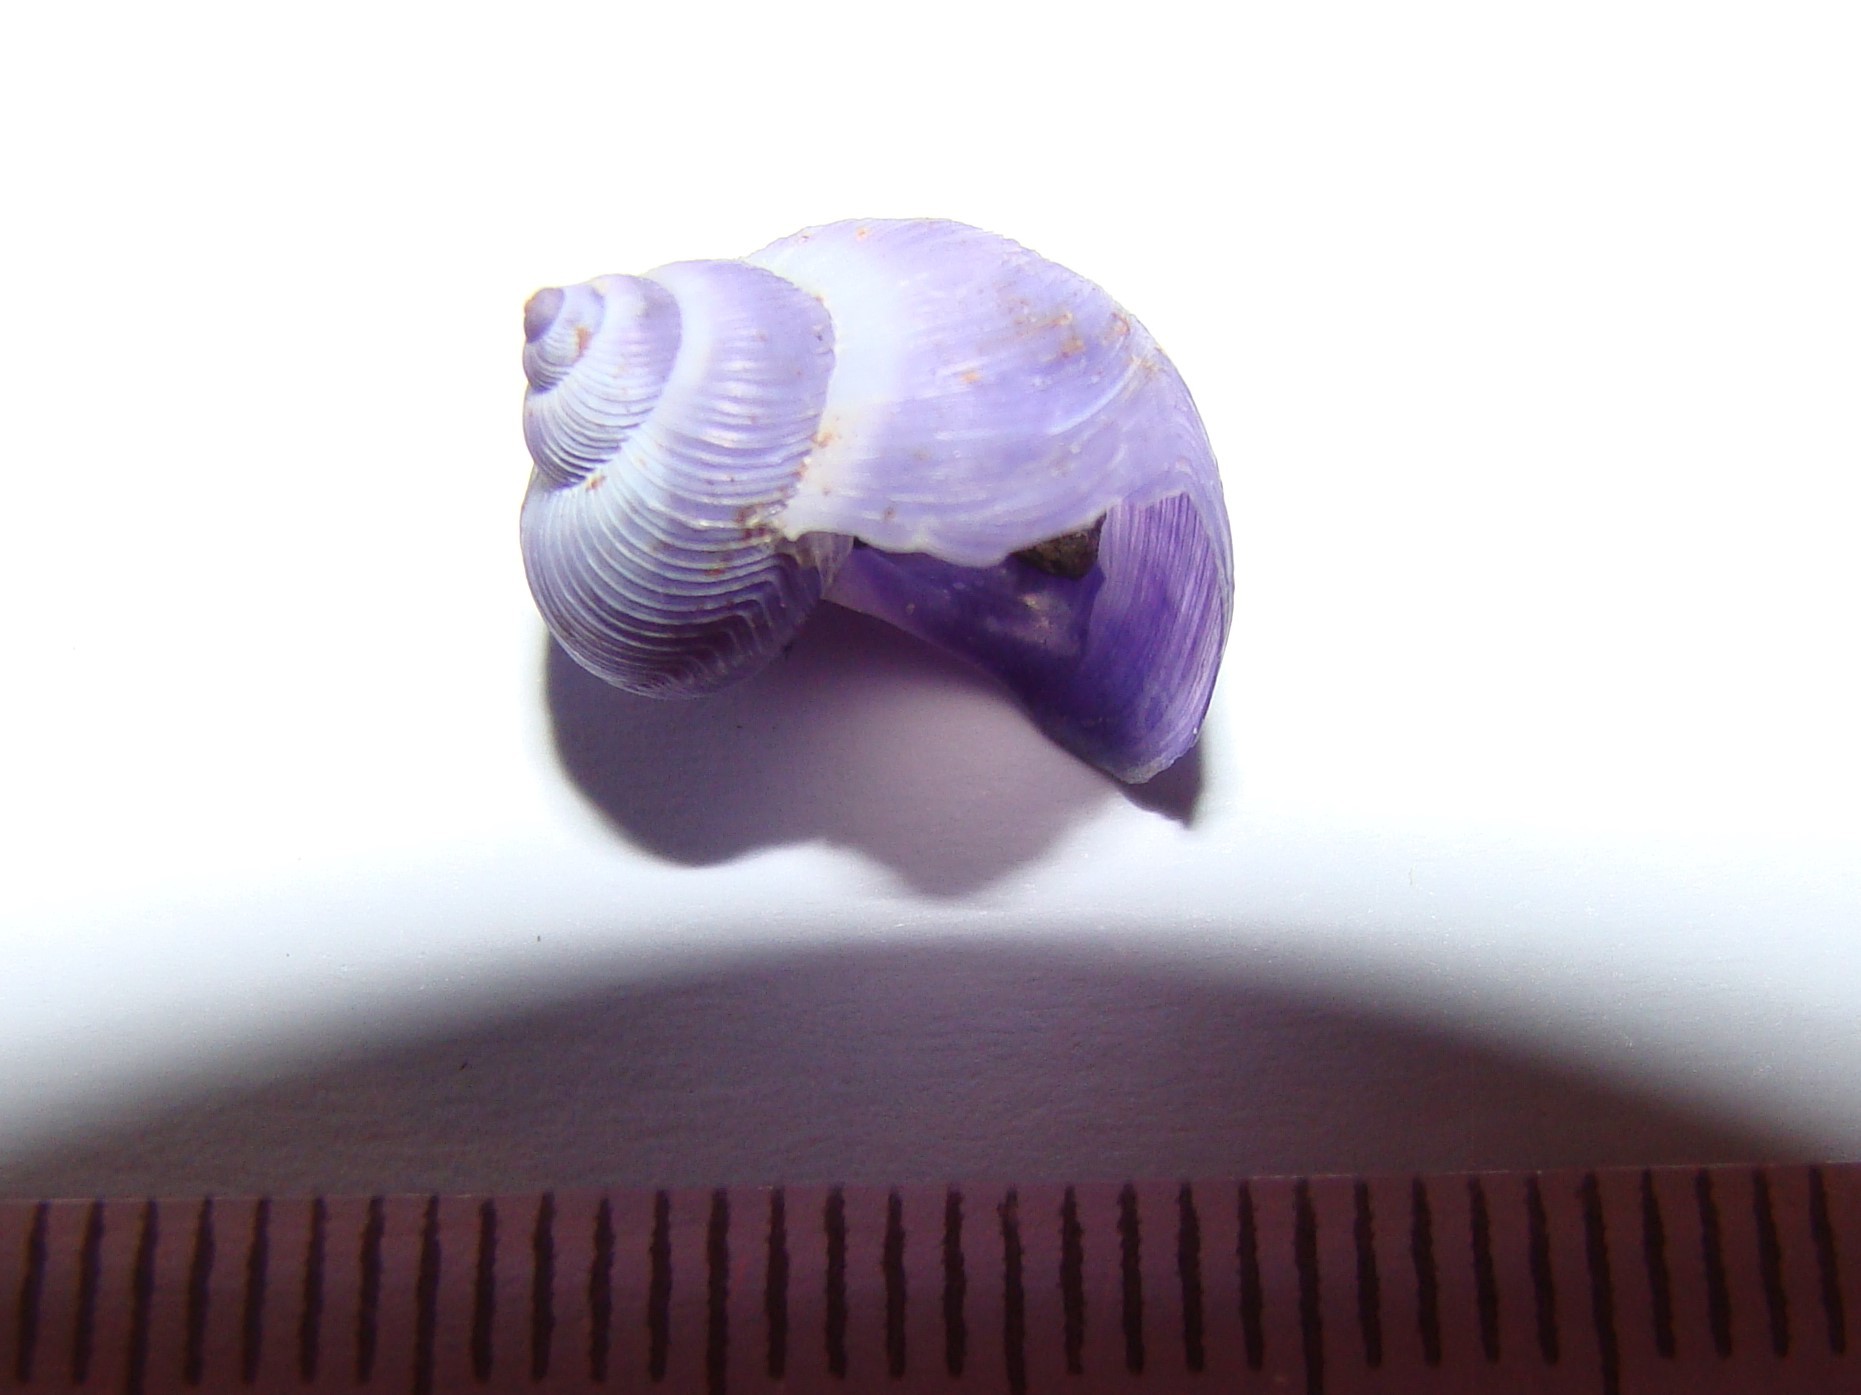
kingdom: Animalia
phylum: Mollusca
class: Gastropoda
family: Epitoniidae
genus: Janthina
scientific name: Janthina exigua
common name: Dwarf janthina
